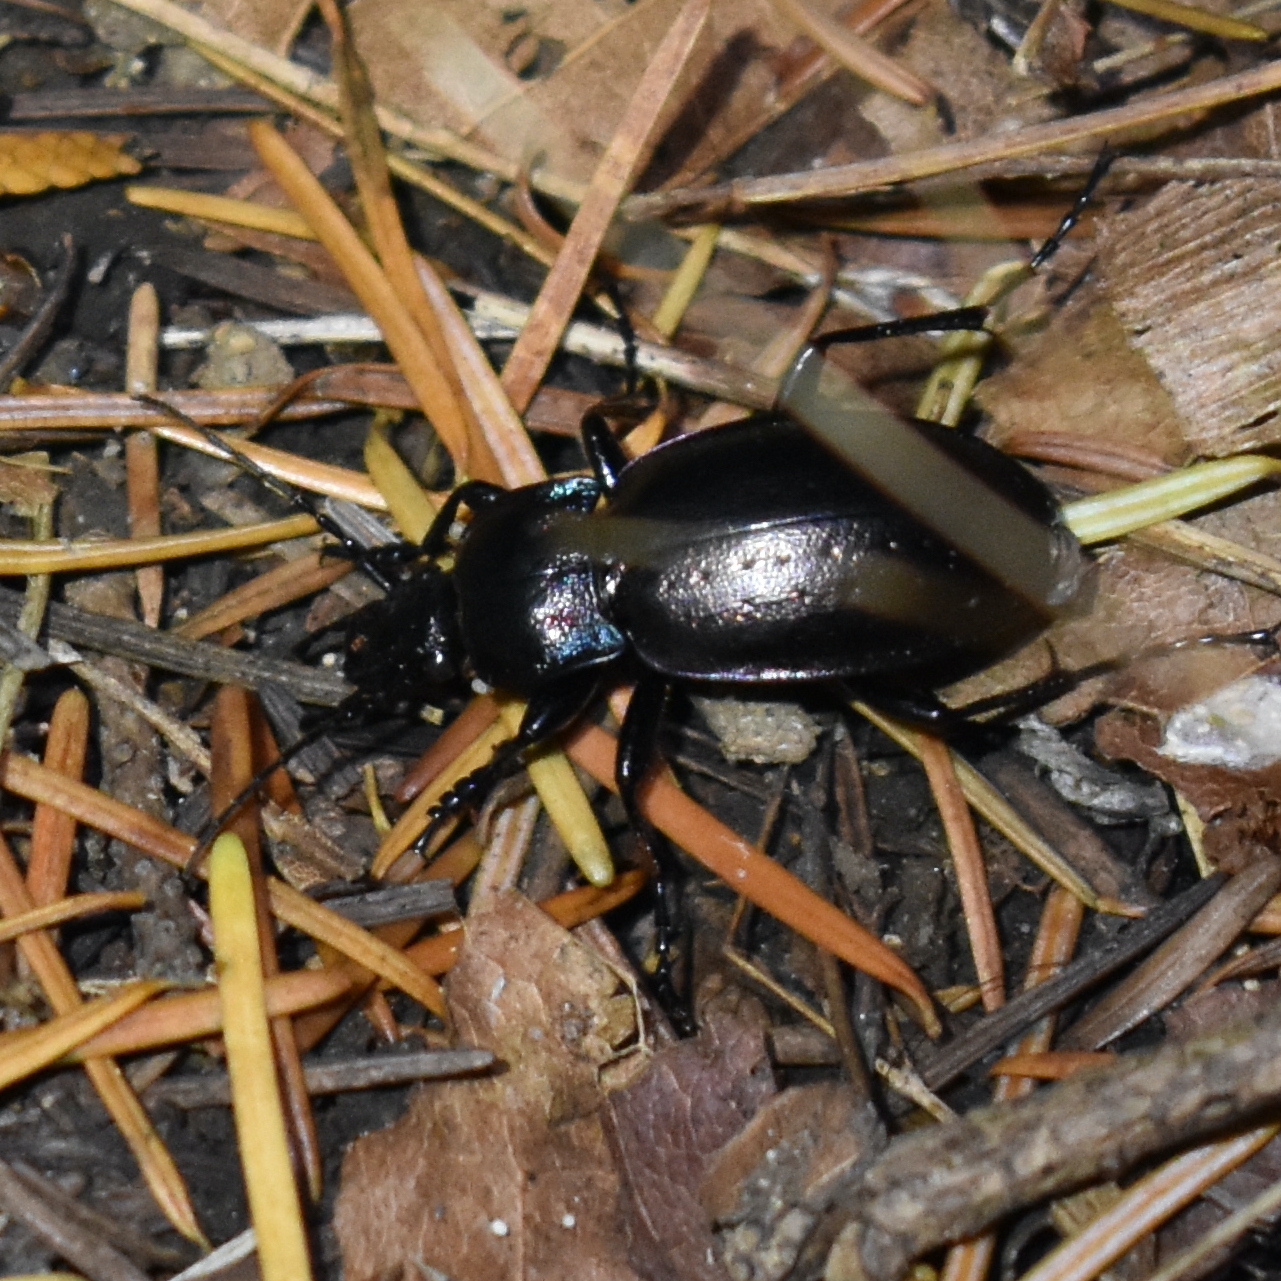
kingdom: Animalia
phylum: Arthropoda
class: Insecta
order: Coleoptera
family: Carabidae
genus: Carabus
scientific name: Carabus nemoralis
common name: European ground beetle
